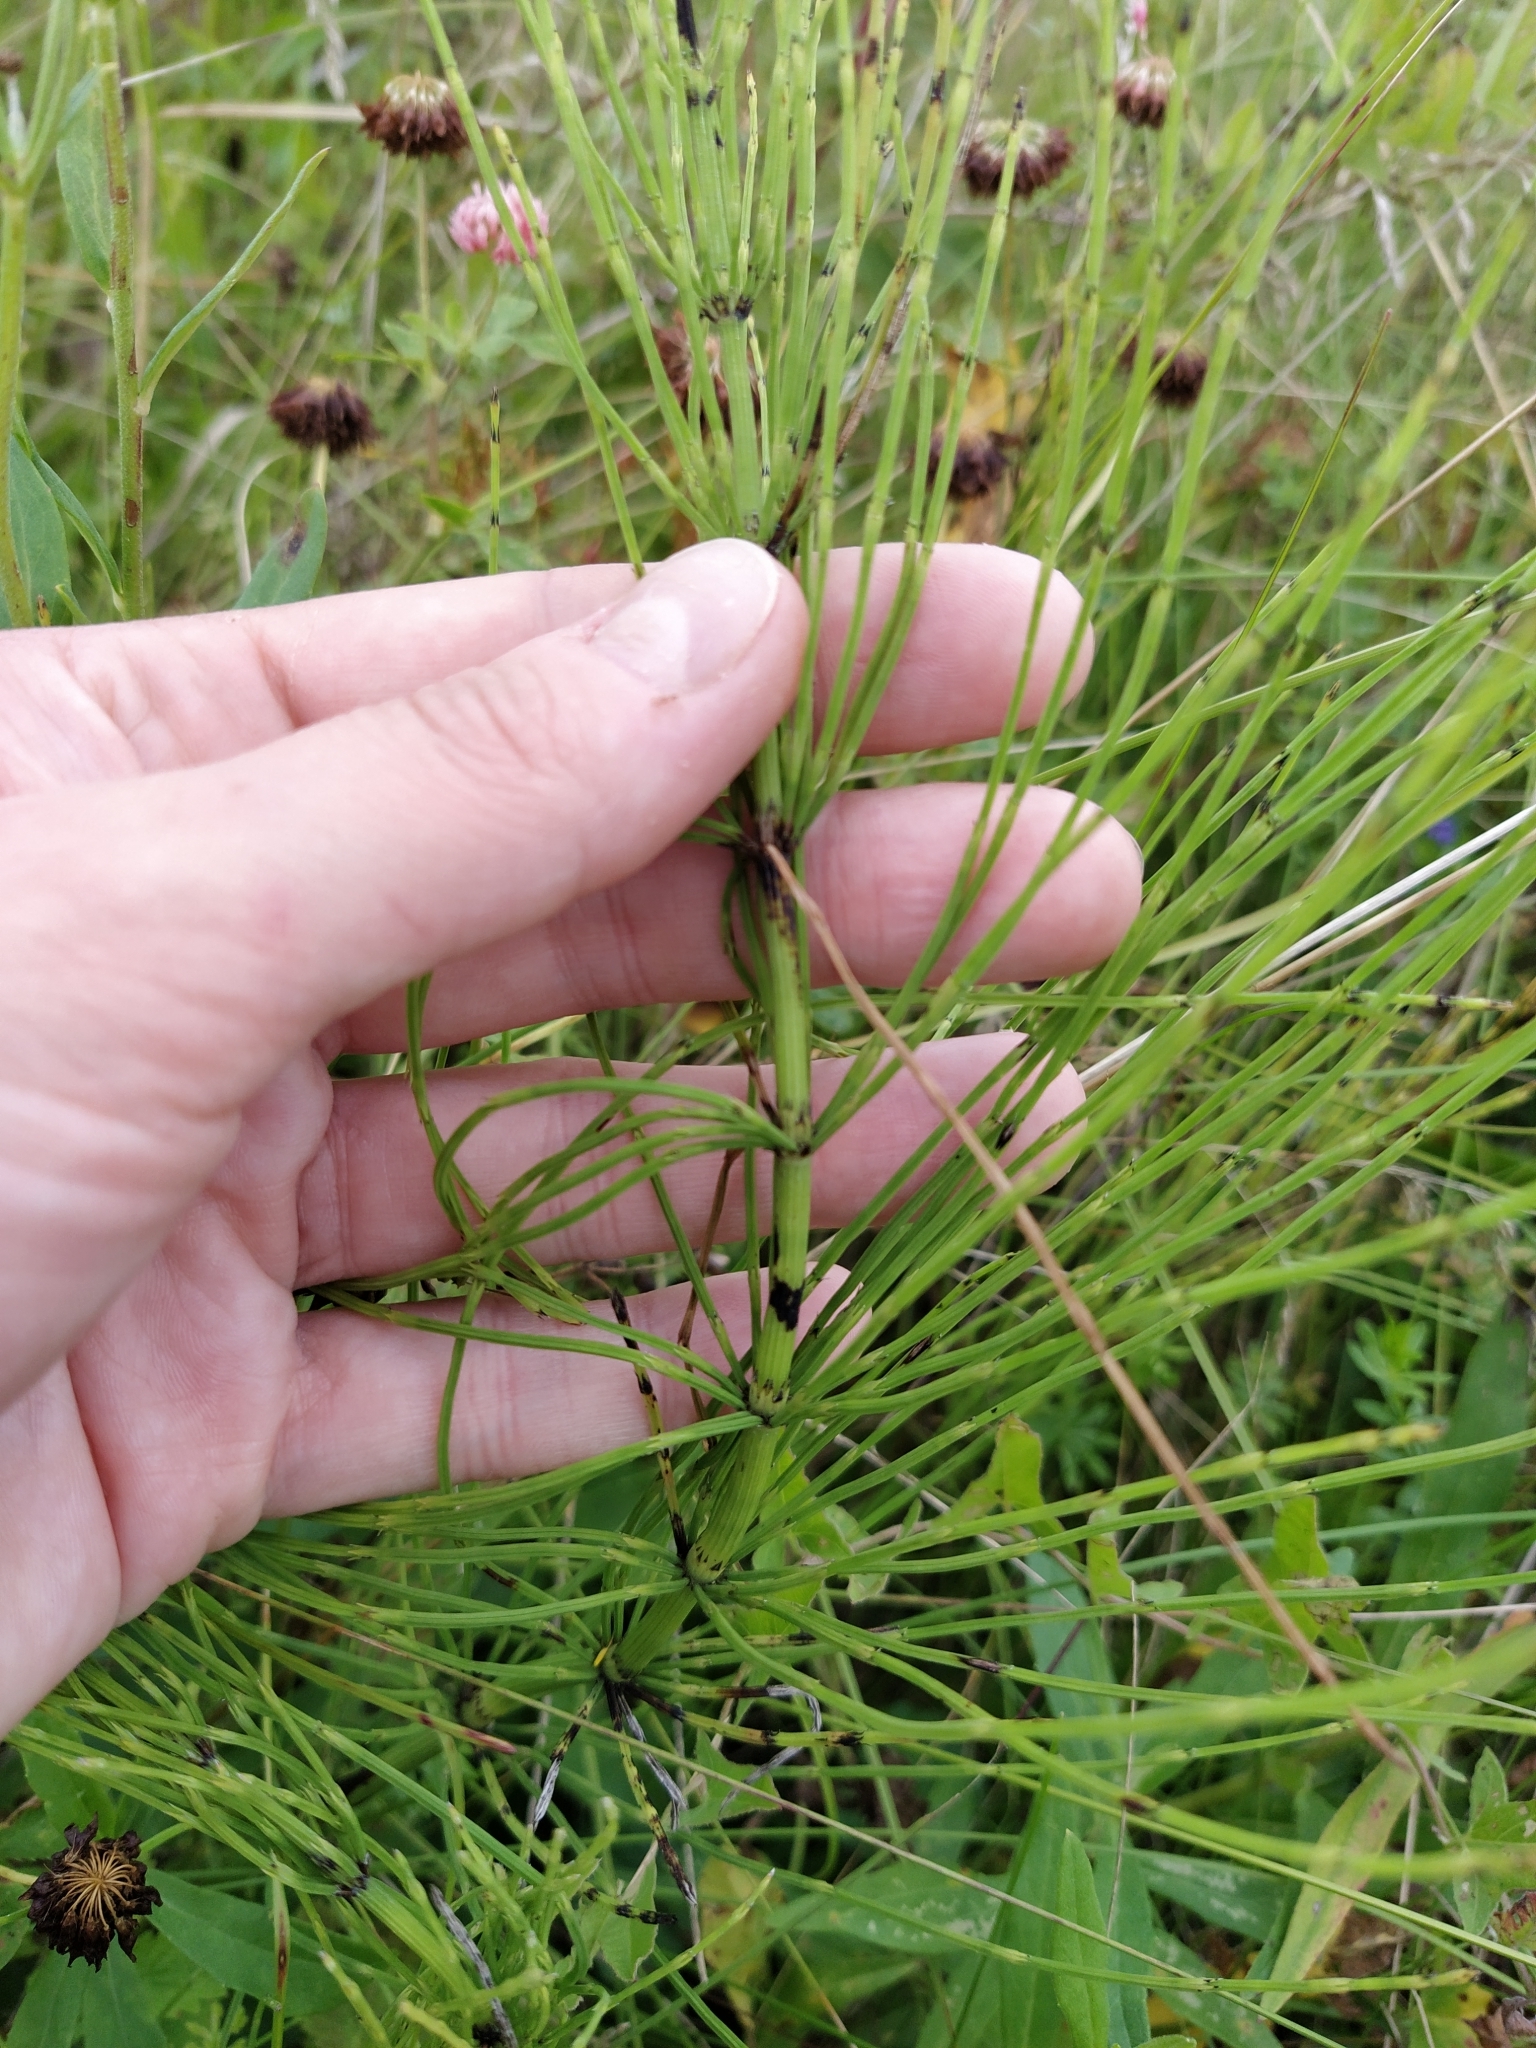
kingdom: Plantae
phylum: Tracheophyta
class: Polypodiopsida
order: Equisetales
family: Equisetaceae
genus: Equisetum
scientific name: Equisetum arvense
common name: Field horsetail
